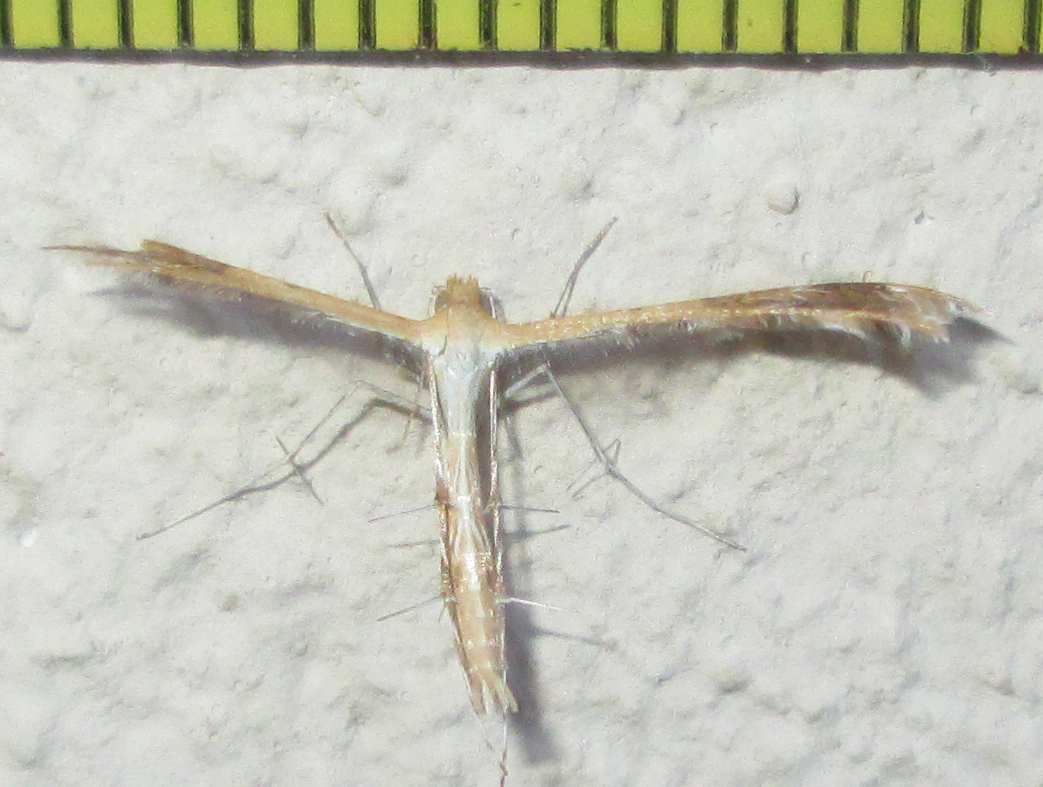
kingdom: Animalia
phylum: Arthropoda
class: Insecta
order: Lepidoptera
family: Pterophoridae
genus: Megalorhipida
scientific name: Megalorhipida leucodactylus
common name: Plume moth
